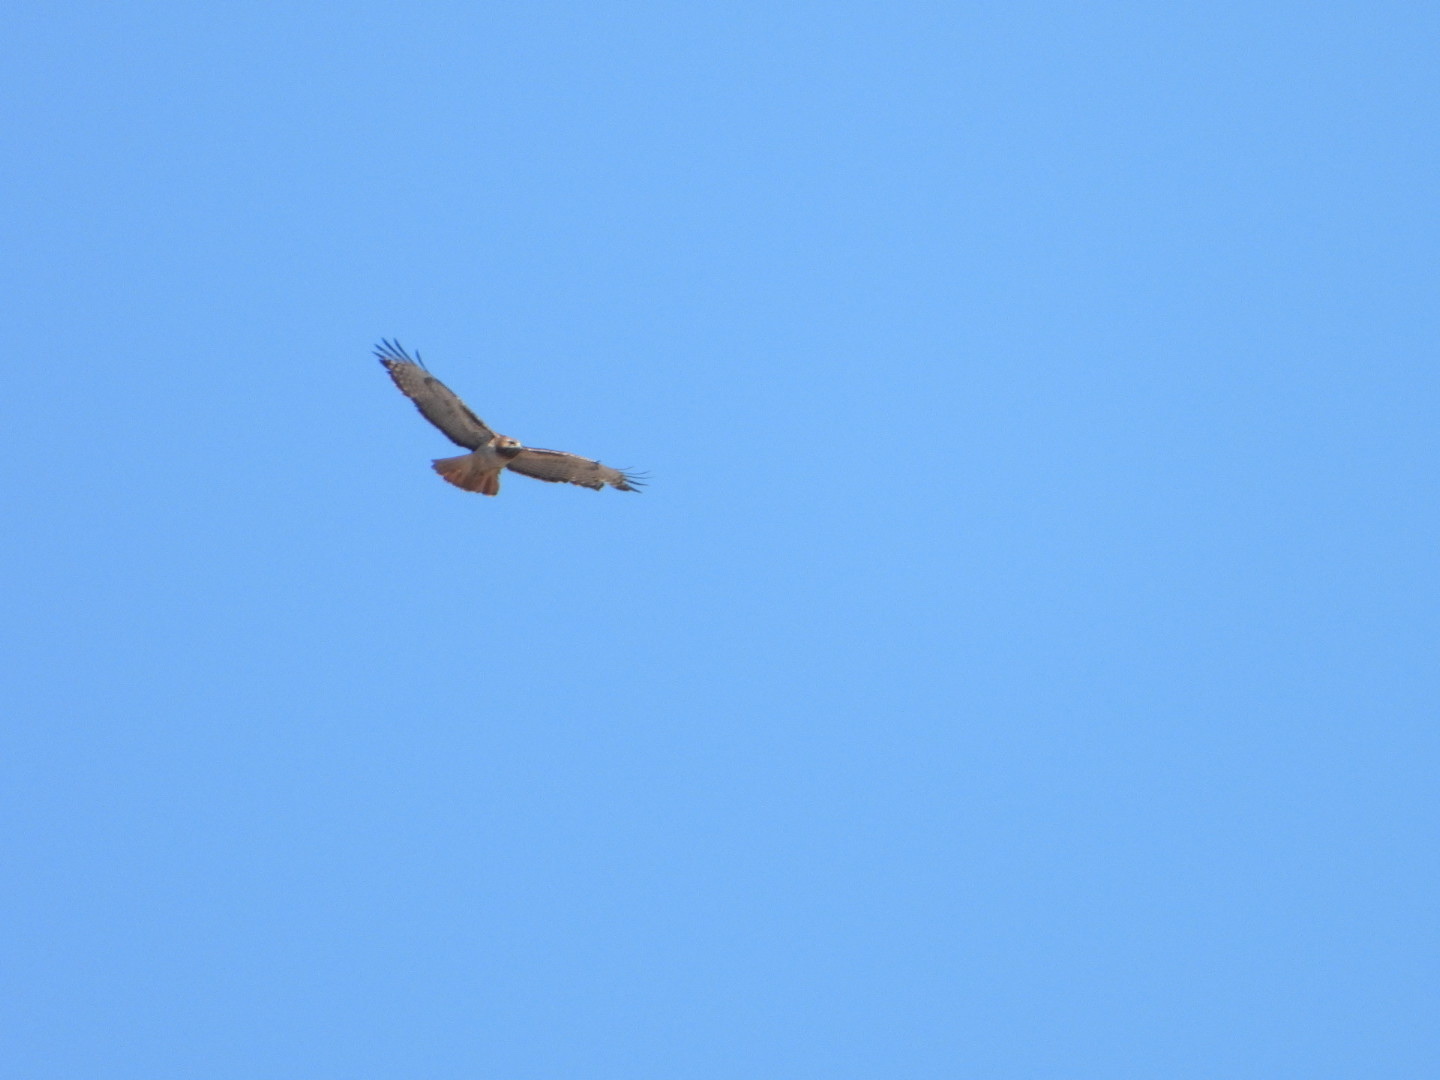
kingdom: Animalia
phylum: Chordata
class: Aves
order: Accipitriformes
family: Accipitridae
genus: Buteo
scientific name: Buteo jamaicensis
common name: Red-tailed hawk
